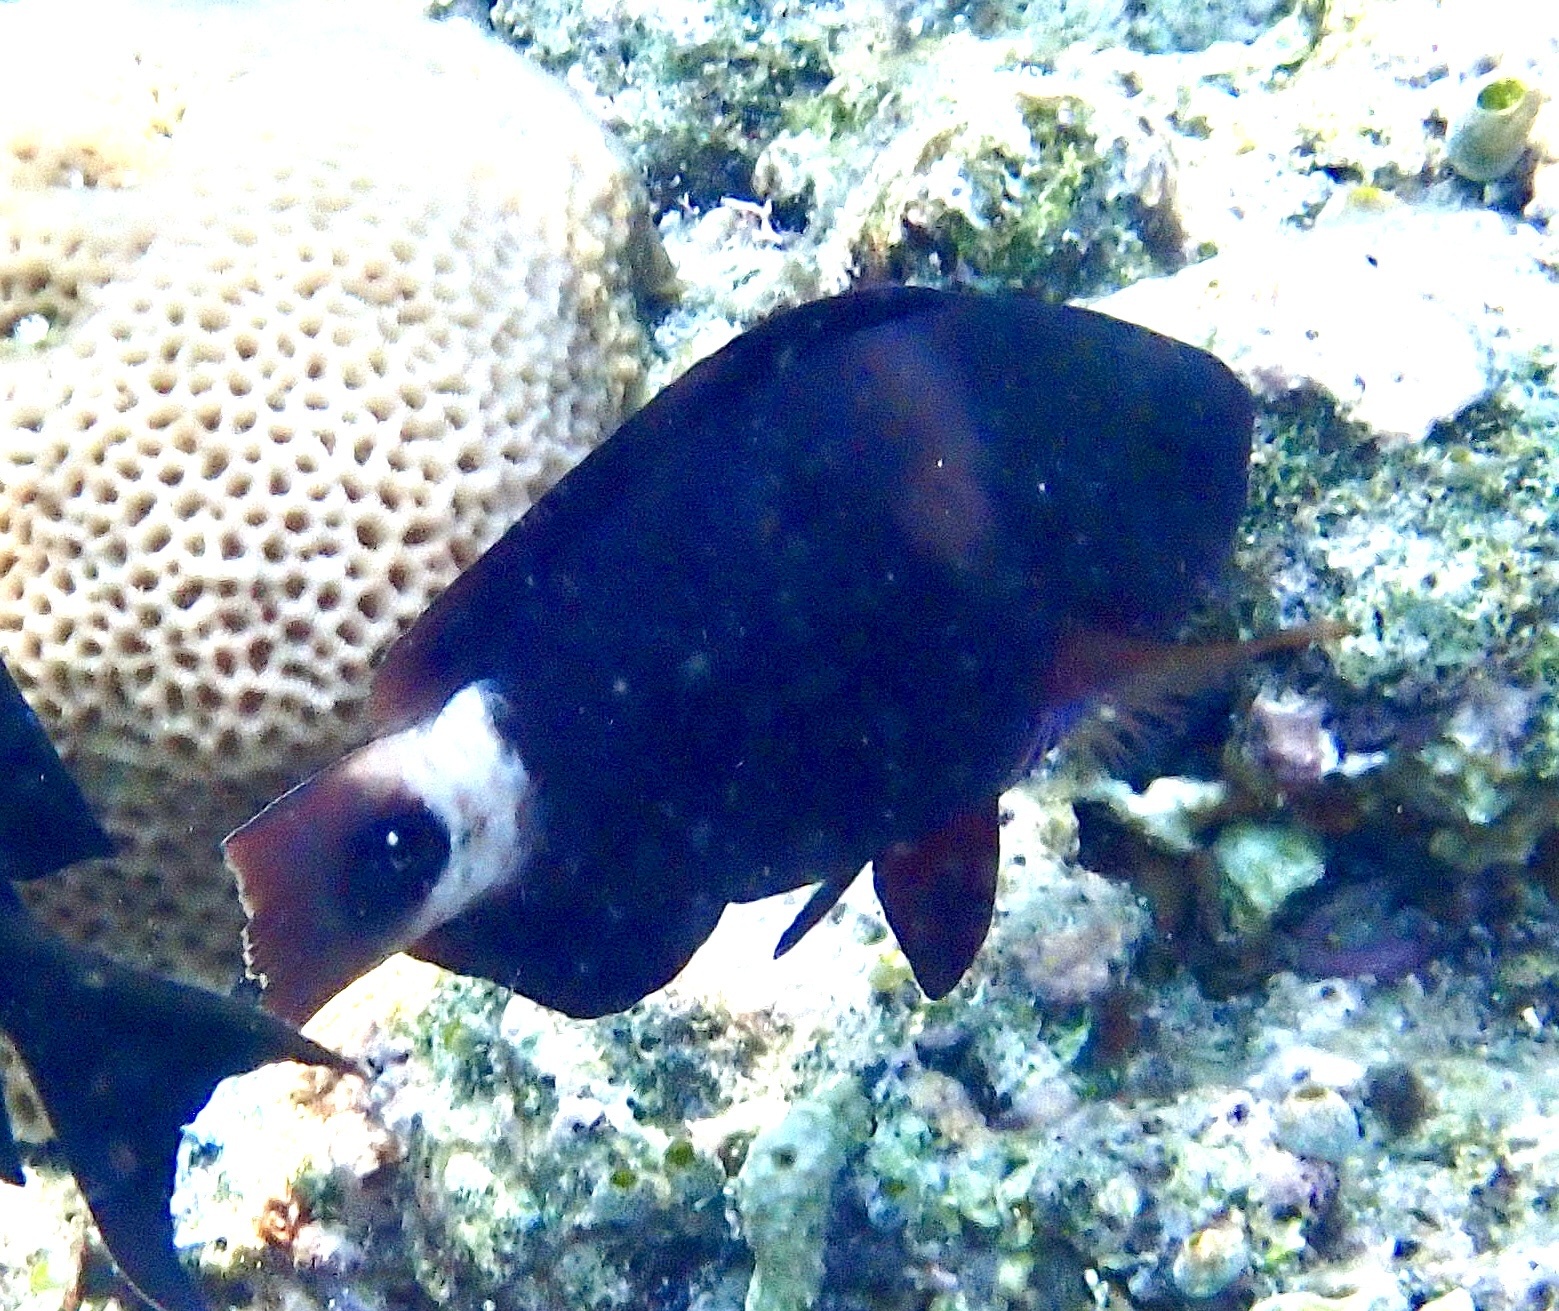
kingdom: Animalia
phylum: Chordata
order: Perciformes
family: Scaridae
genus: Chlorurus
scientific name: Chlorurus spilurus
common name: Bullethead parrotfish
